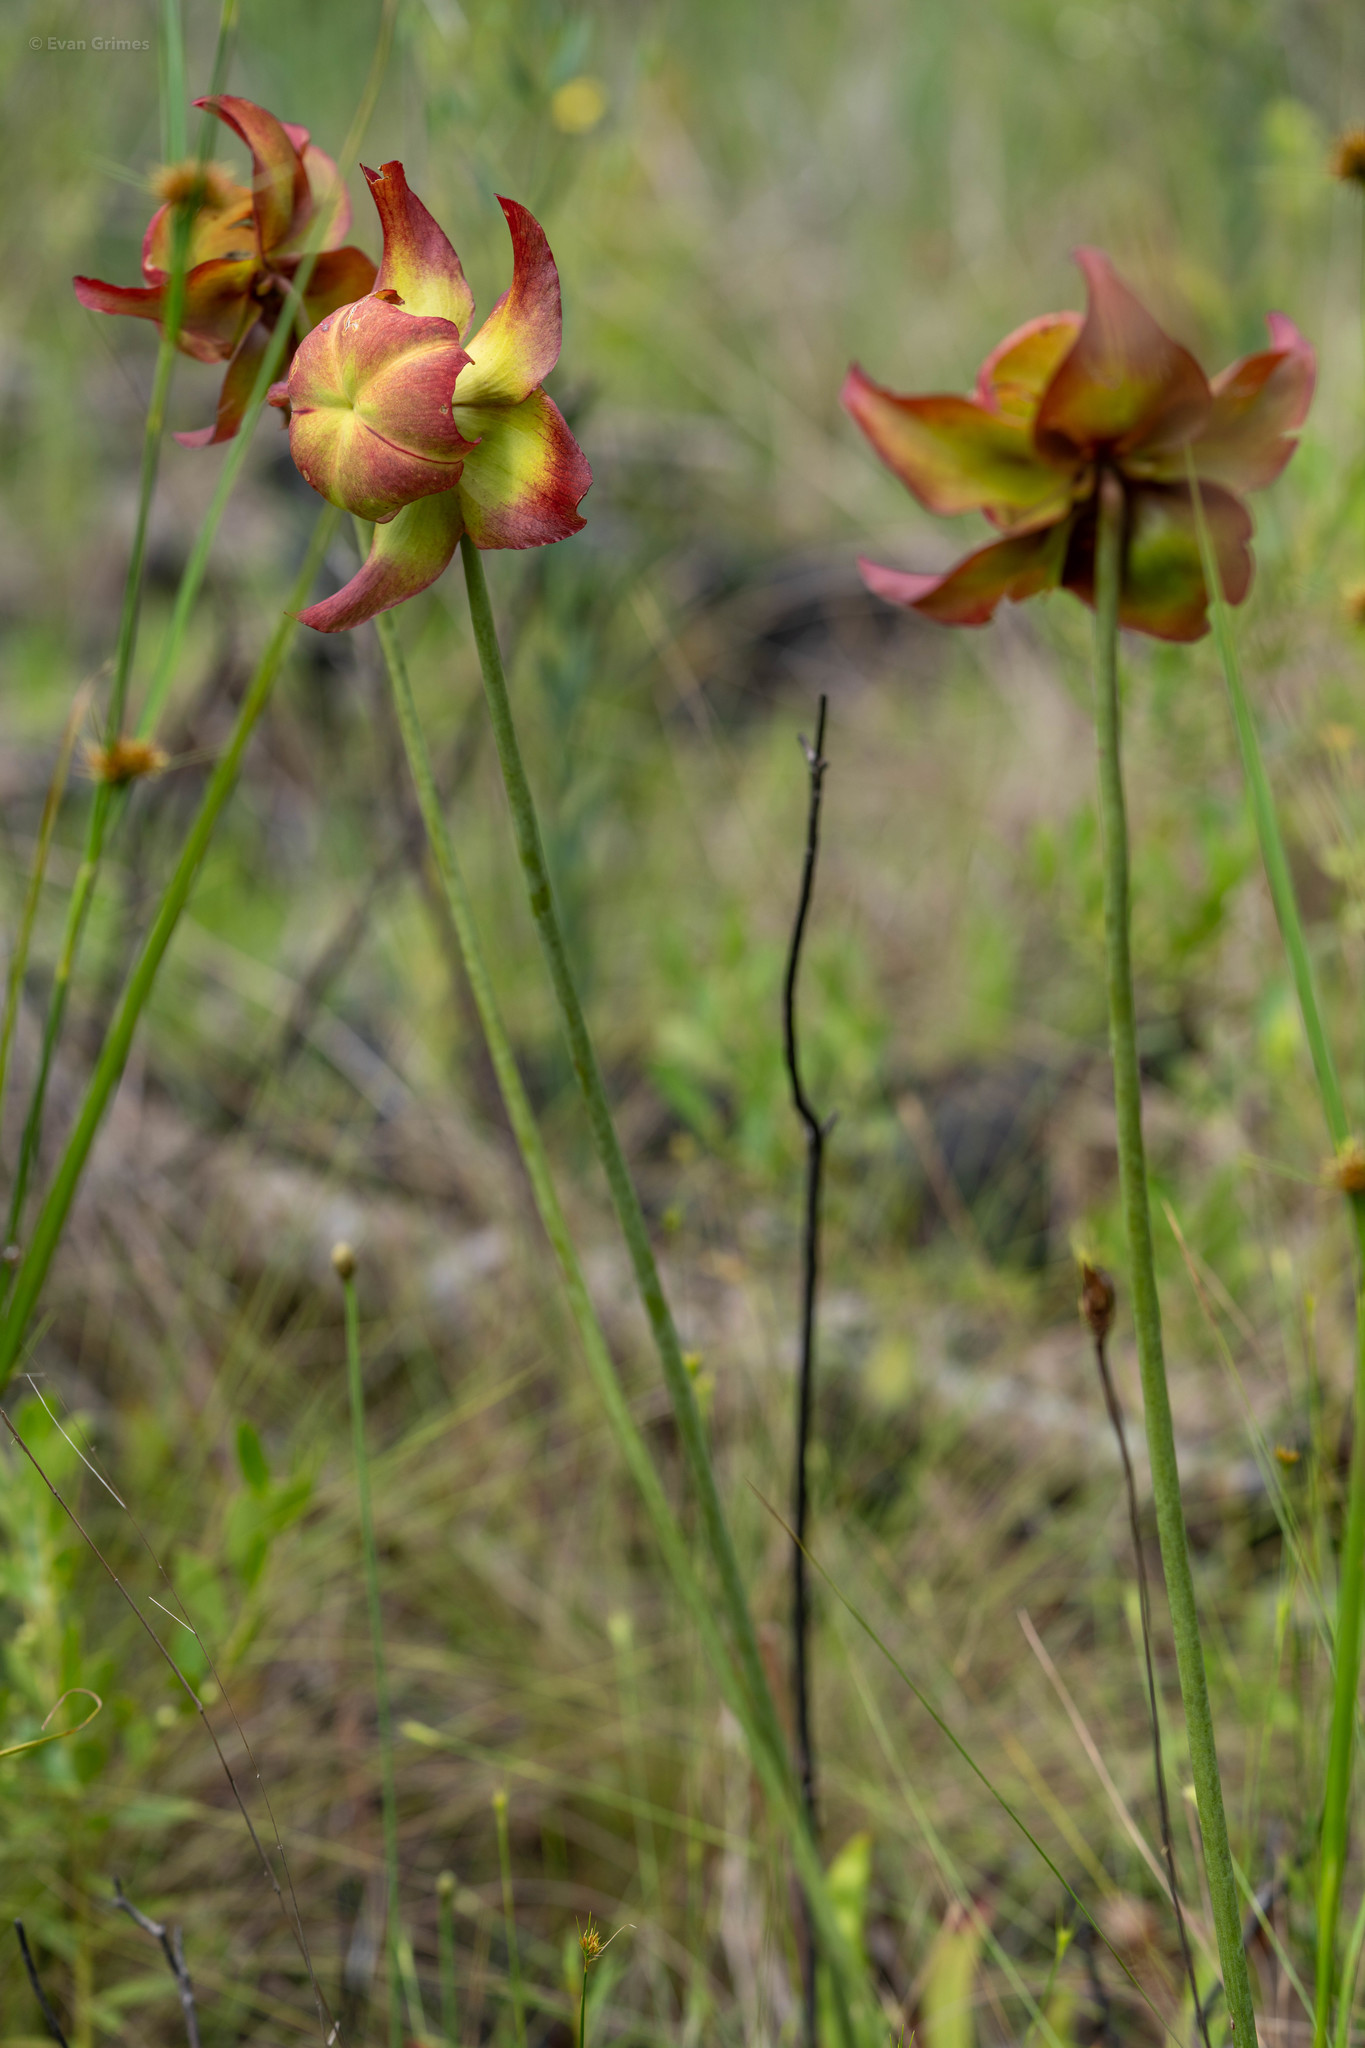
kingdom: Plantae
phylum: Tracheophyta
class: Magnoliopsida
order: Ericales
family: Sarraceniaceae
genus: Sarracenia
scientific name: Sarracenia leucophylla
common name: Purple trumpetleaf
